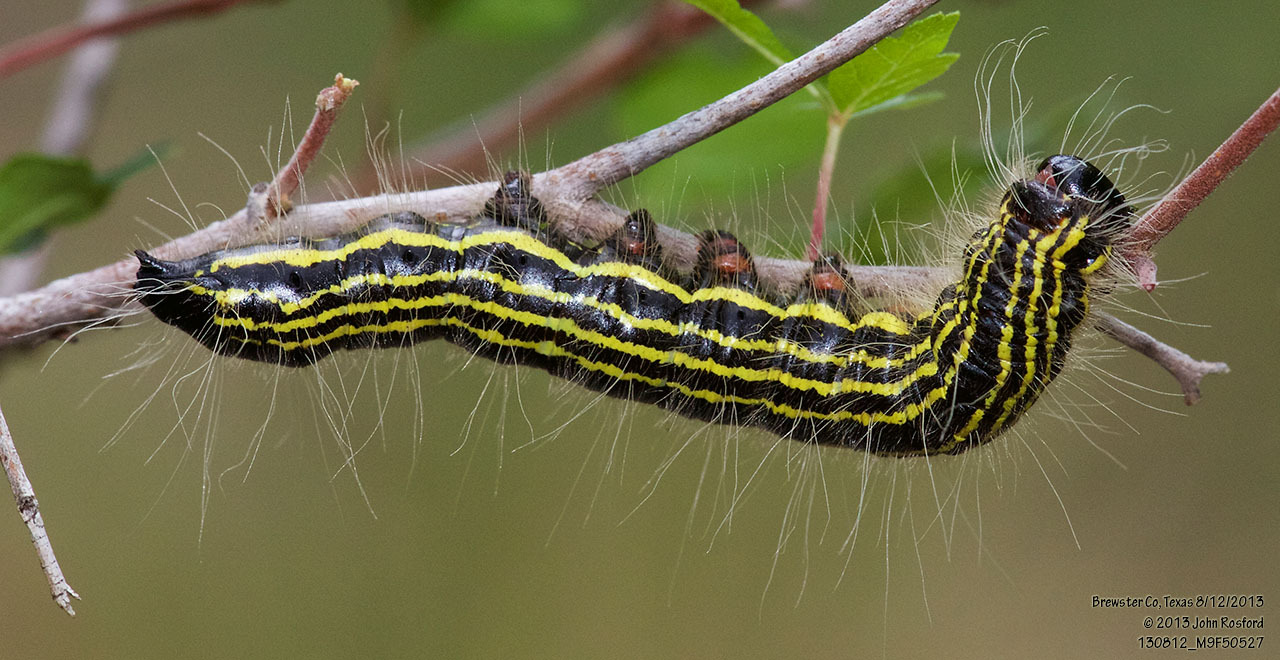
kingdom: Animalia
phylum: Arthropoda
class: Insecta
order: Lepidoptera
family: Notodontidae
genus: Datana
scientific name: Datana perspicua
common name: Spotted datana
